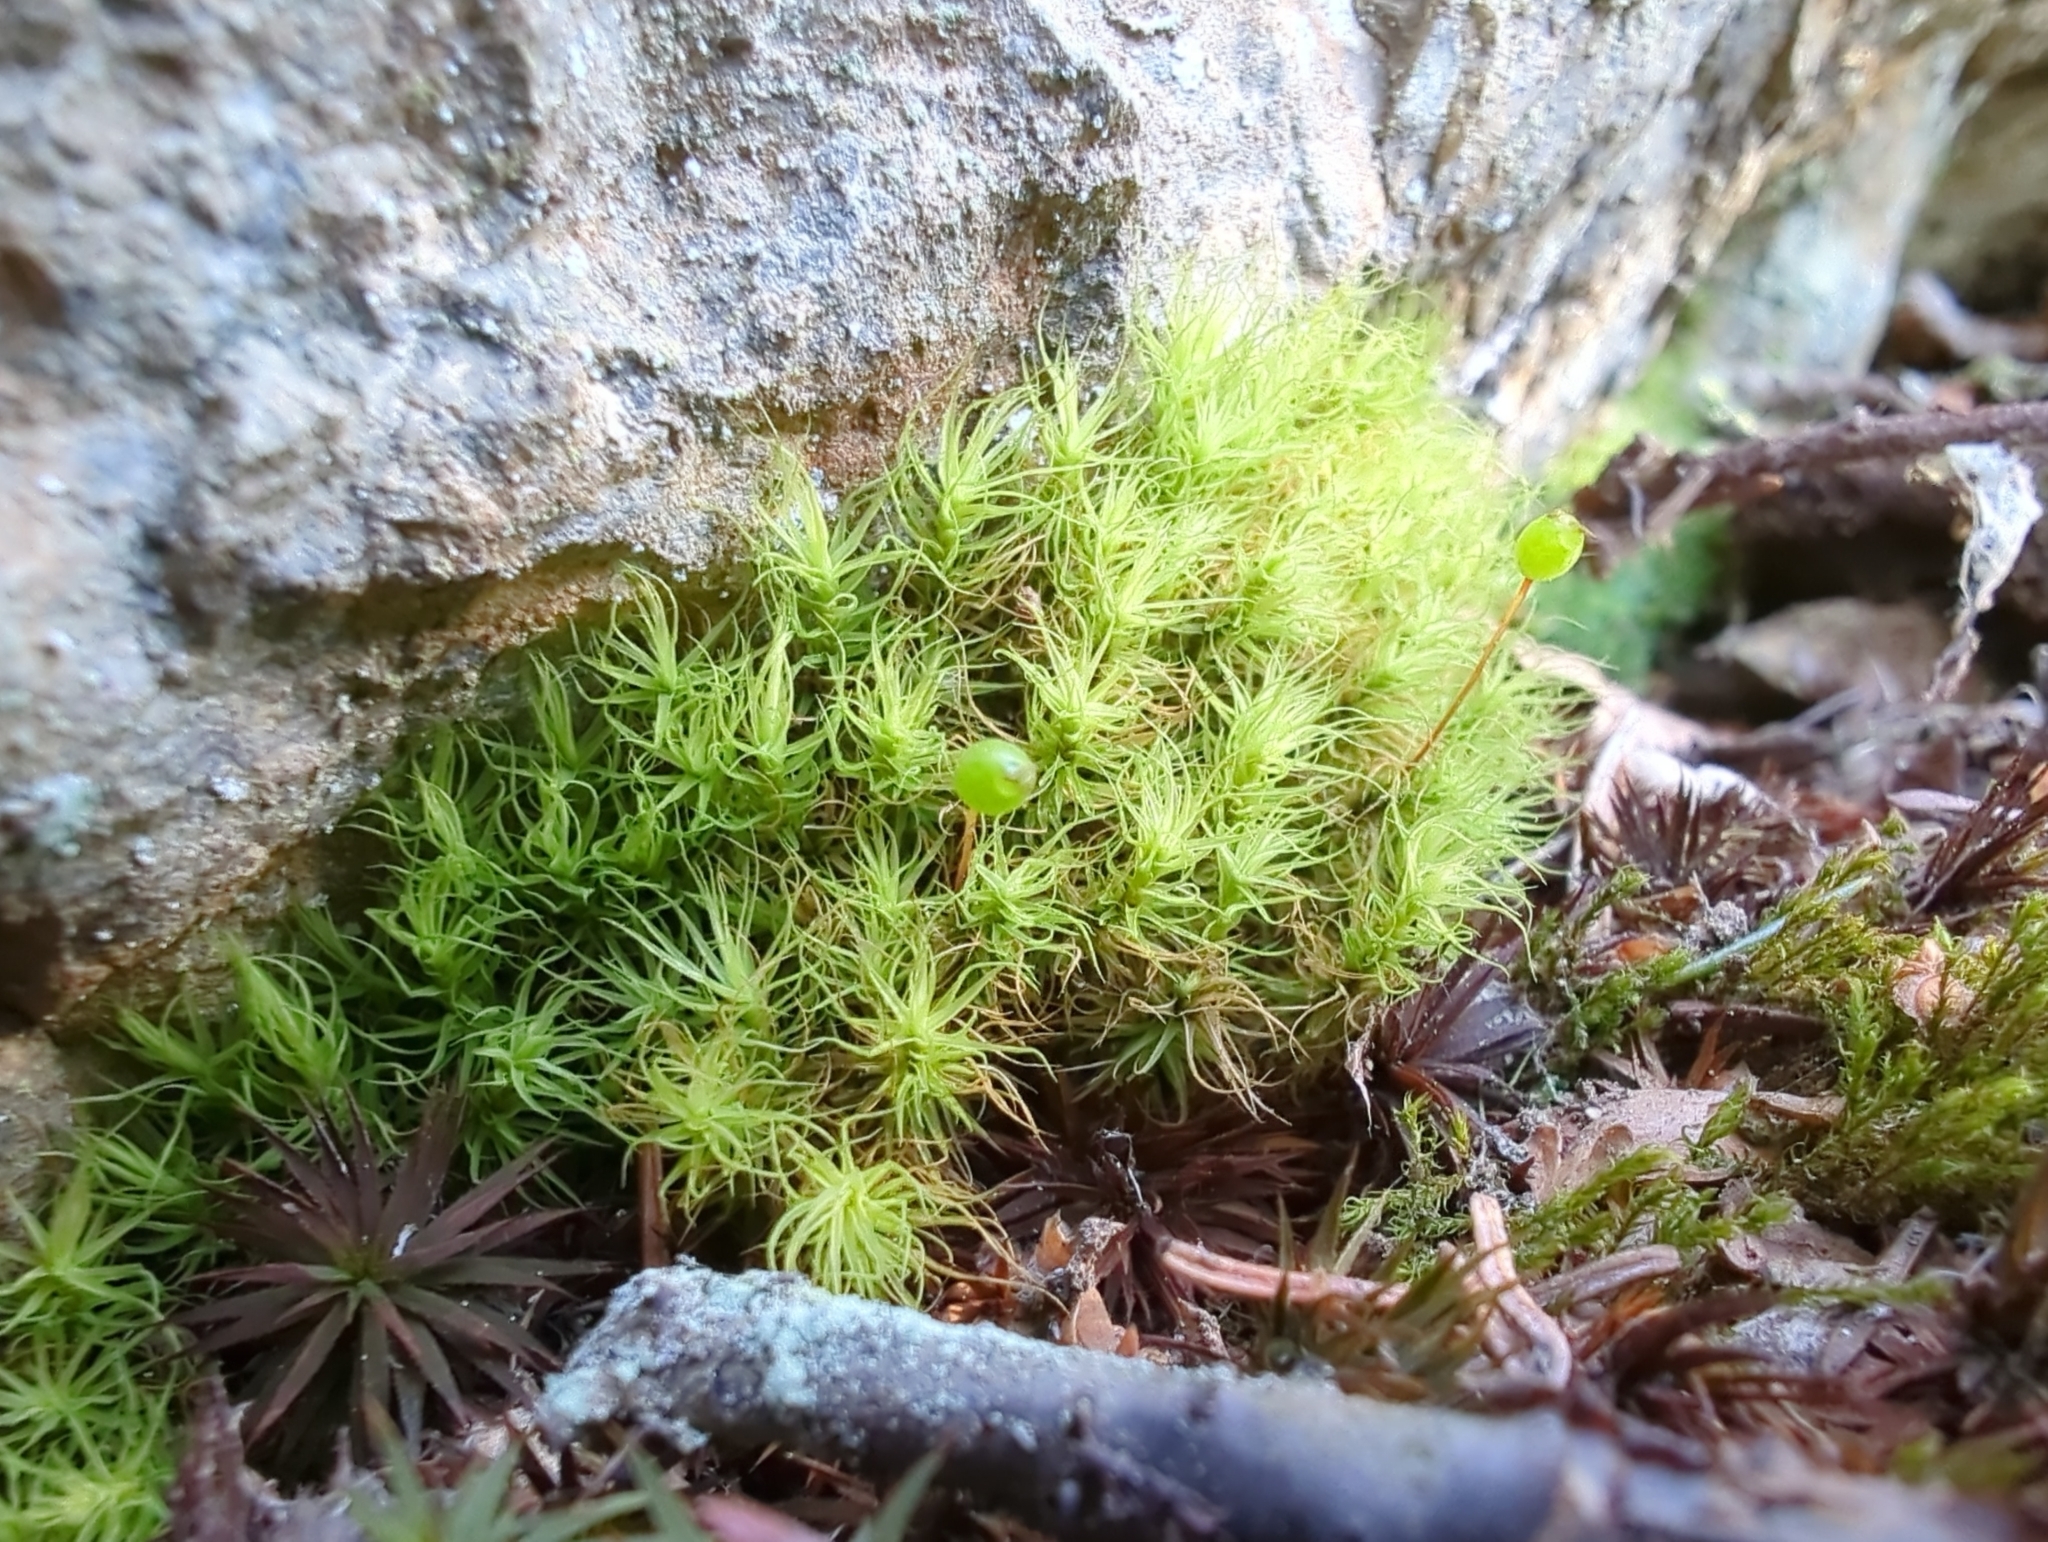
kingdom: Plantae
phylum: Bryophyta
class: Bryopsida
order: Bartramiales
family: Bartramiaceae
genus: Bartramia
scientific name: Bartramia ithyphylla
